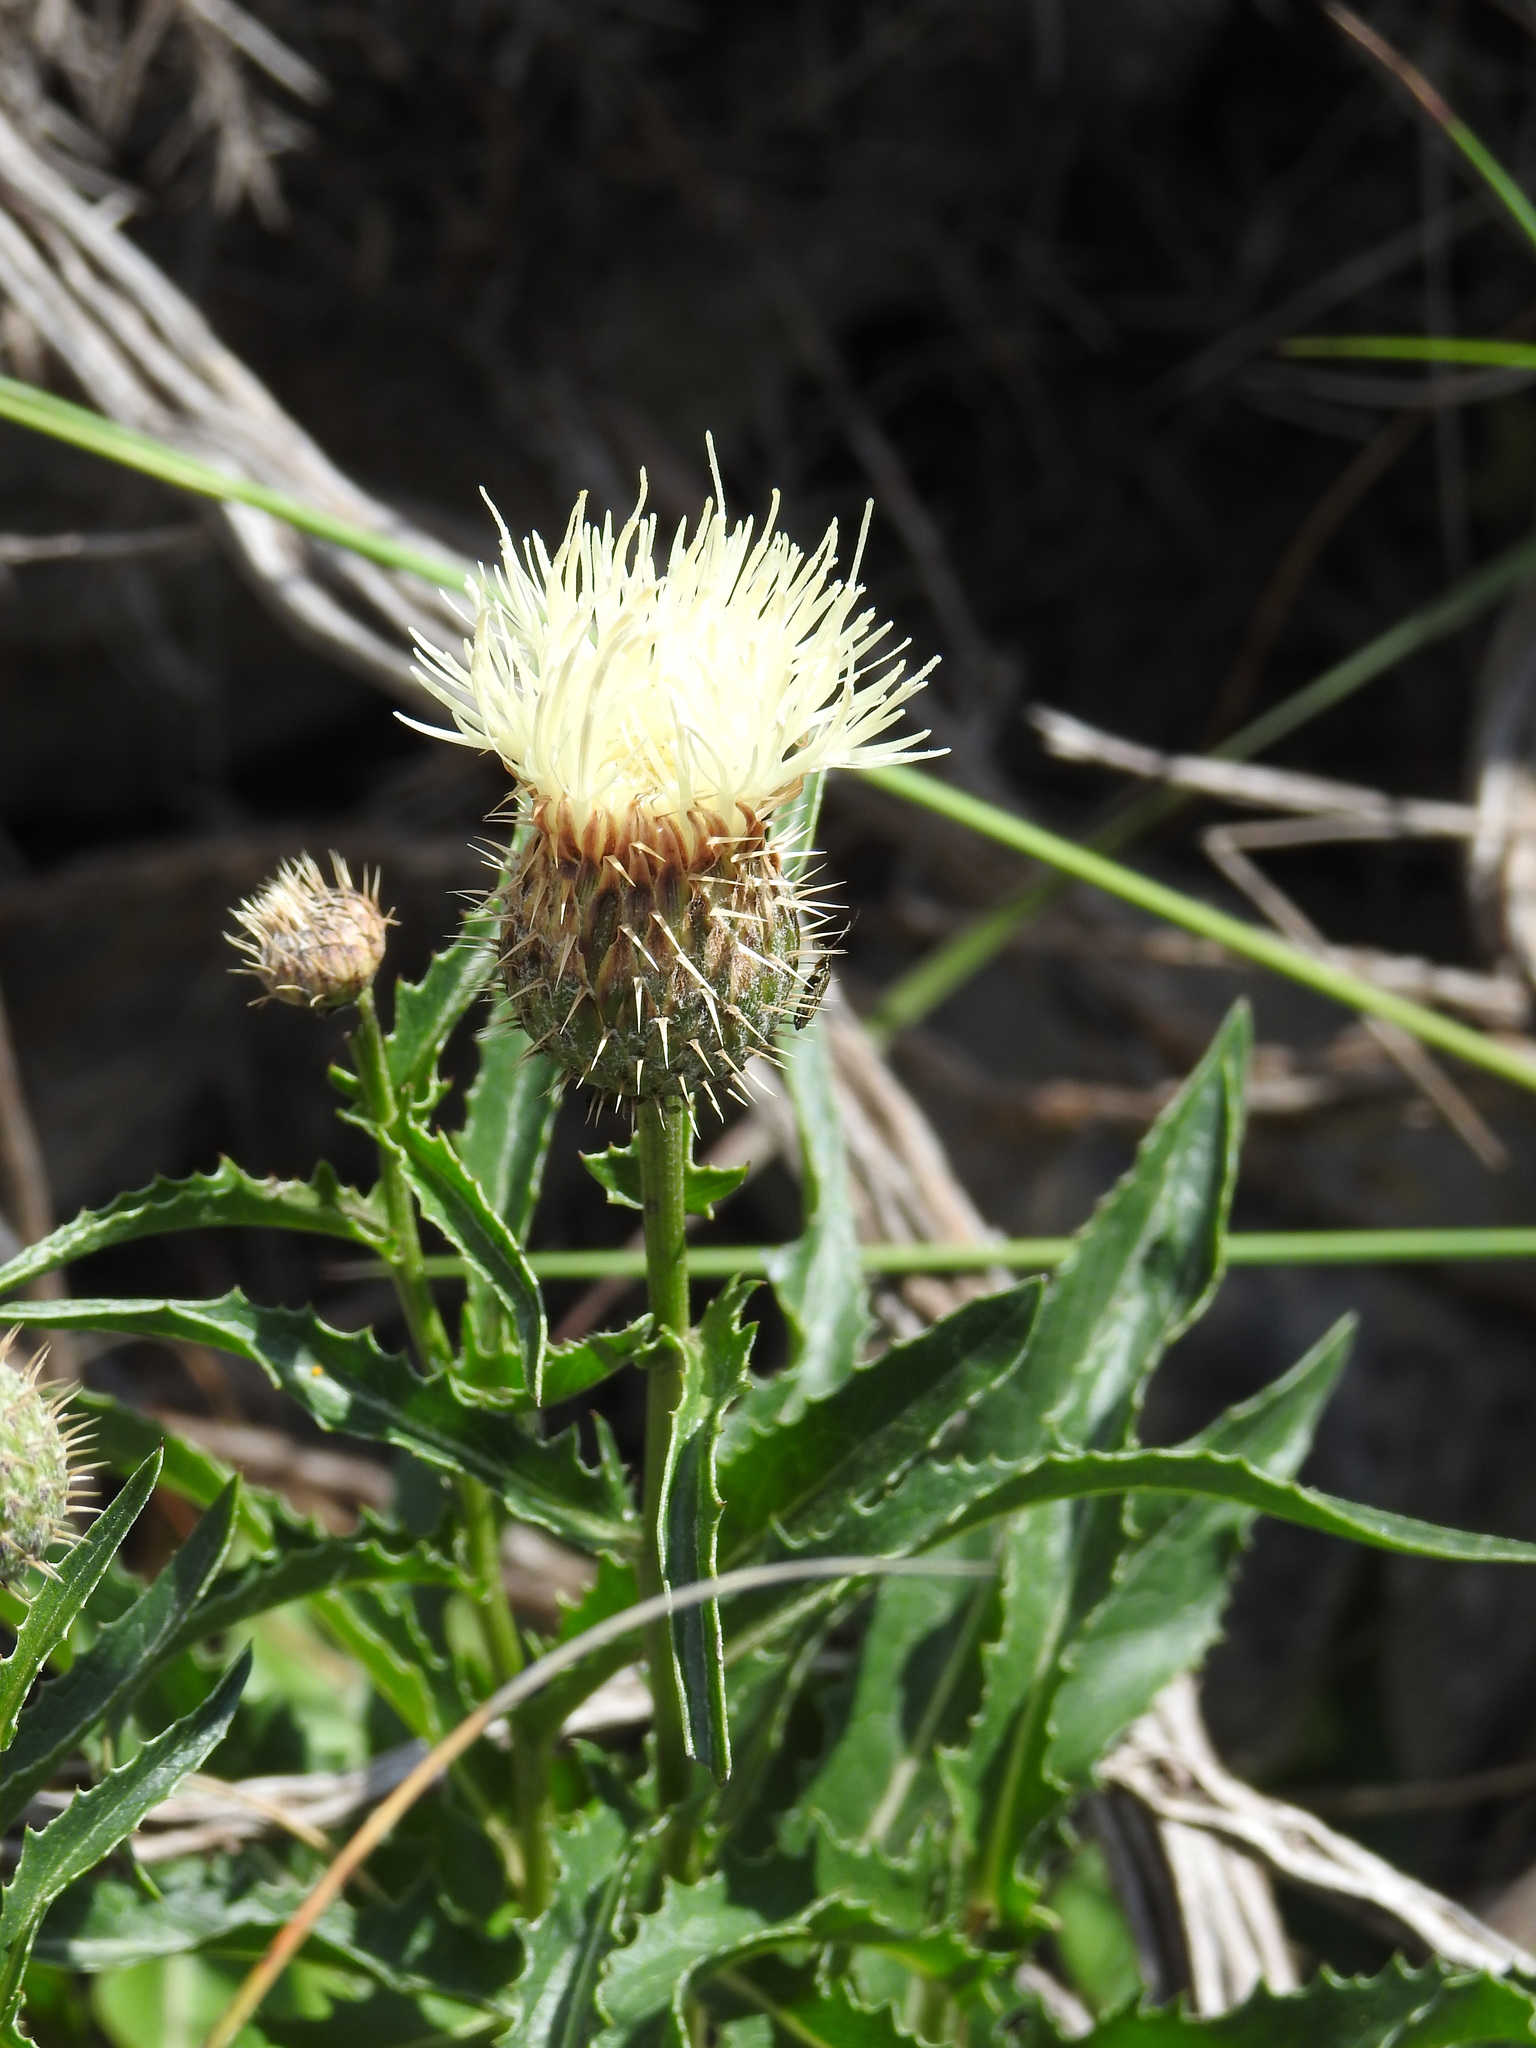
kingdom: Plantae
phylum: Tracheophyta
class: Magnoliopsida
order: Asterales
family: Asteraceae
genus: Klasea
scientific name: Klasea flavescens
